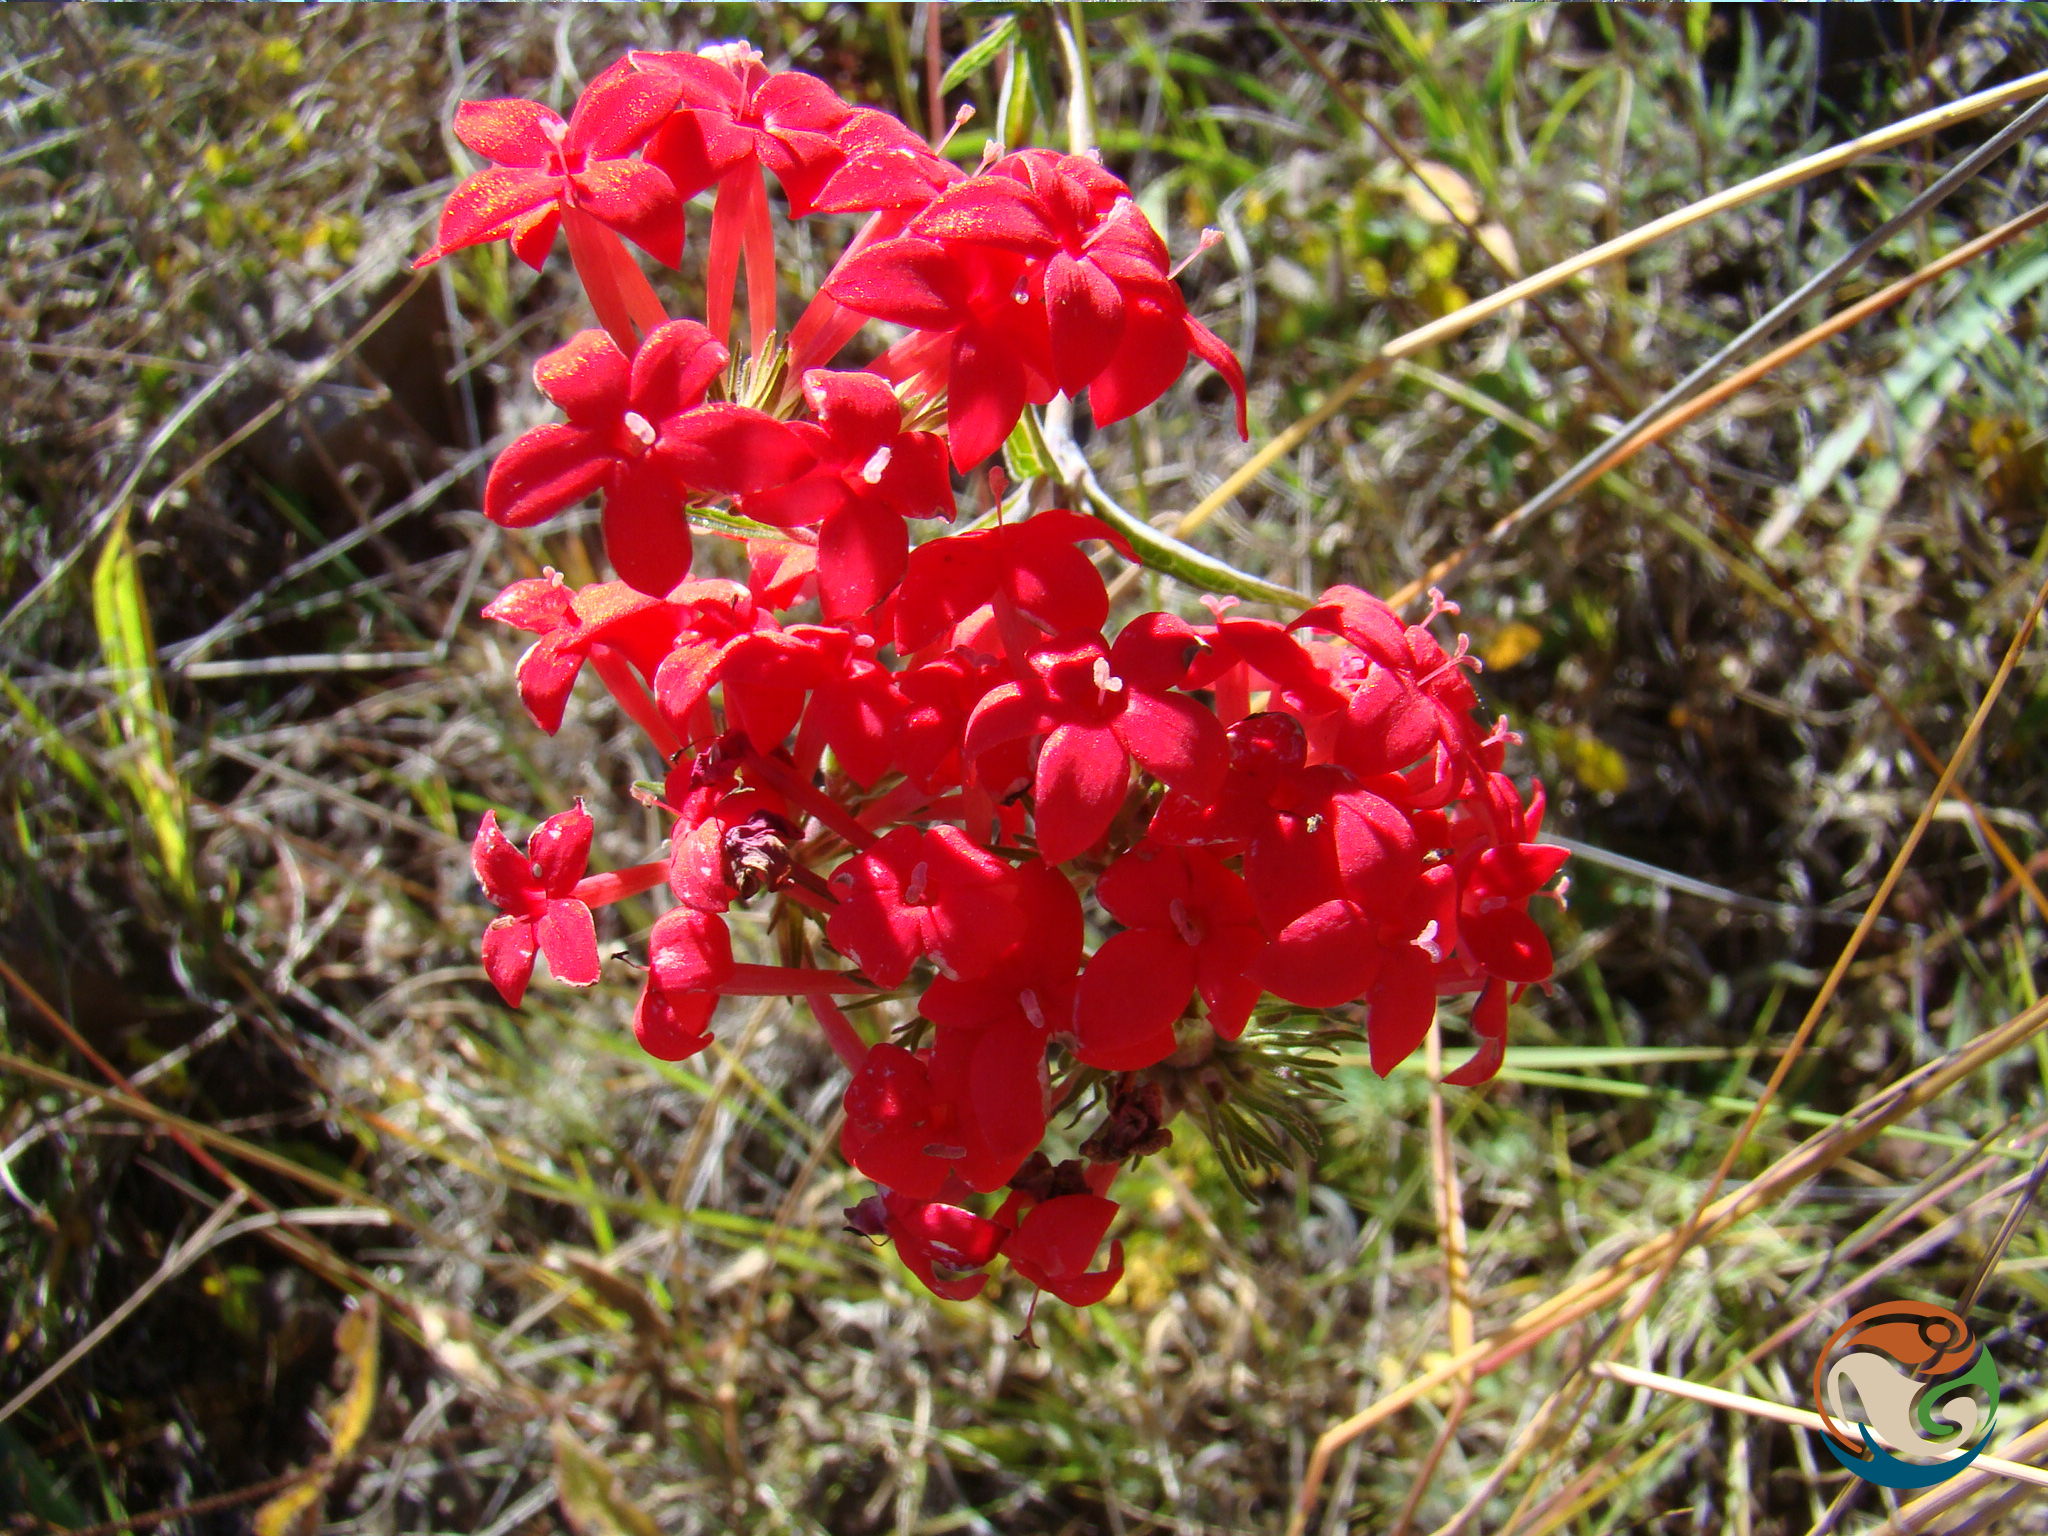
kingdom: Plantae
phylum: Tracheophyta
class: Magnoliopsida
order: Gentianales
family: Rubiaceae
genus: Bouvardia
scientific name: Bouvardia viminalis
